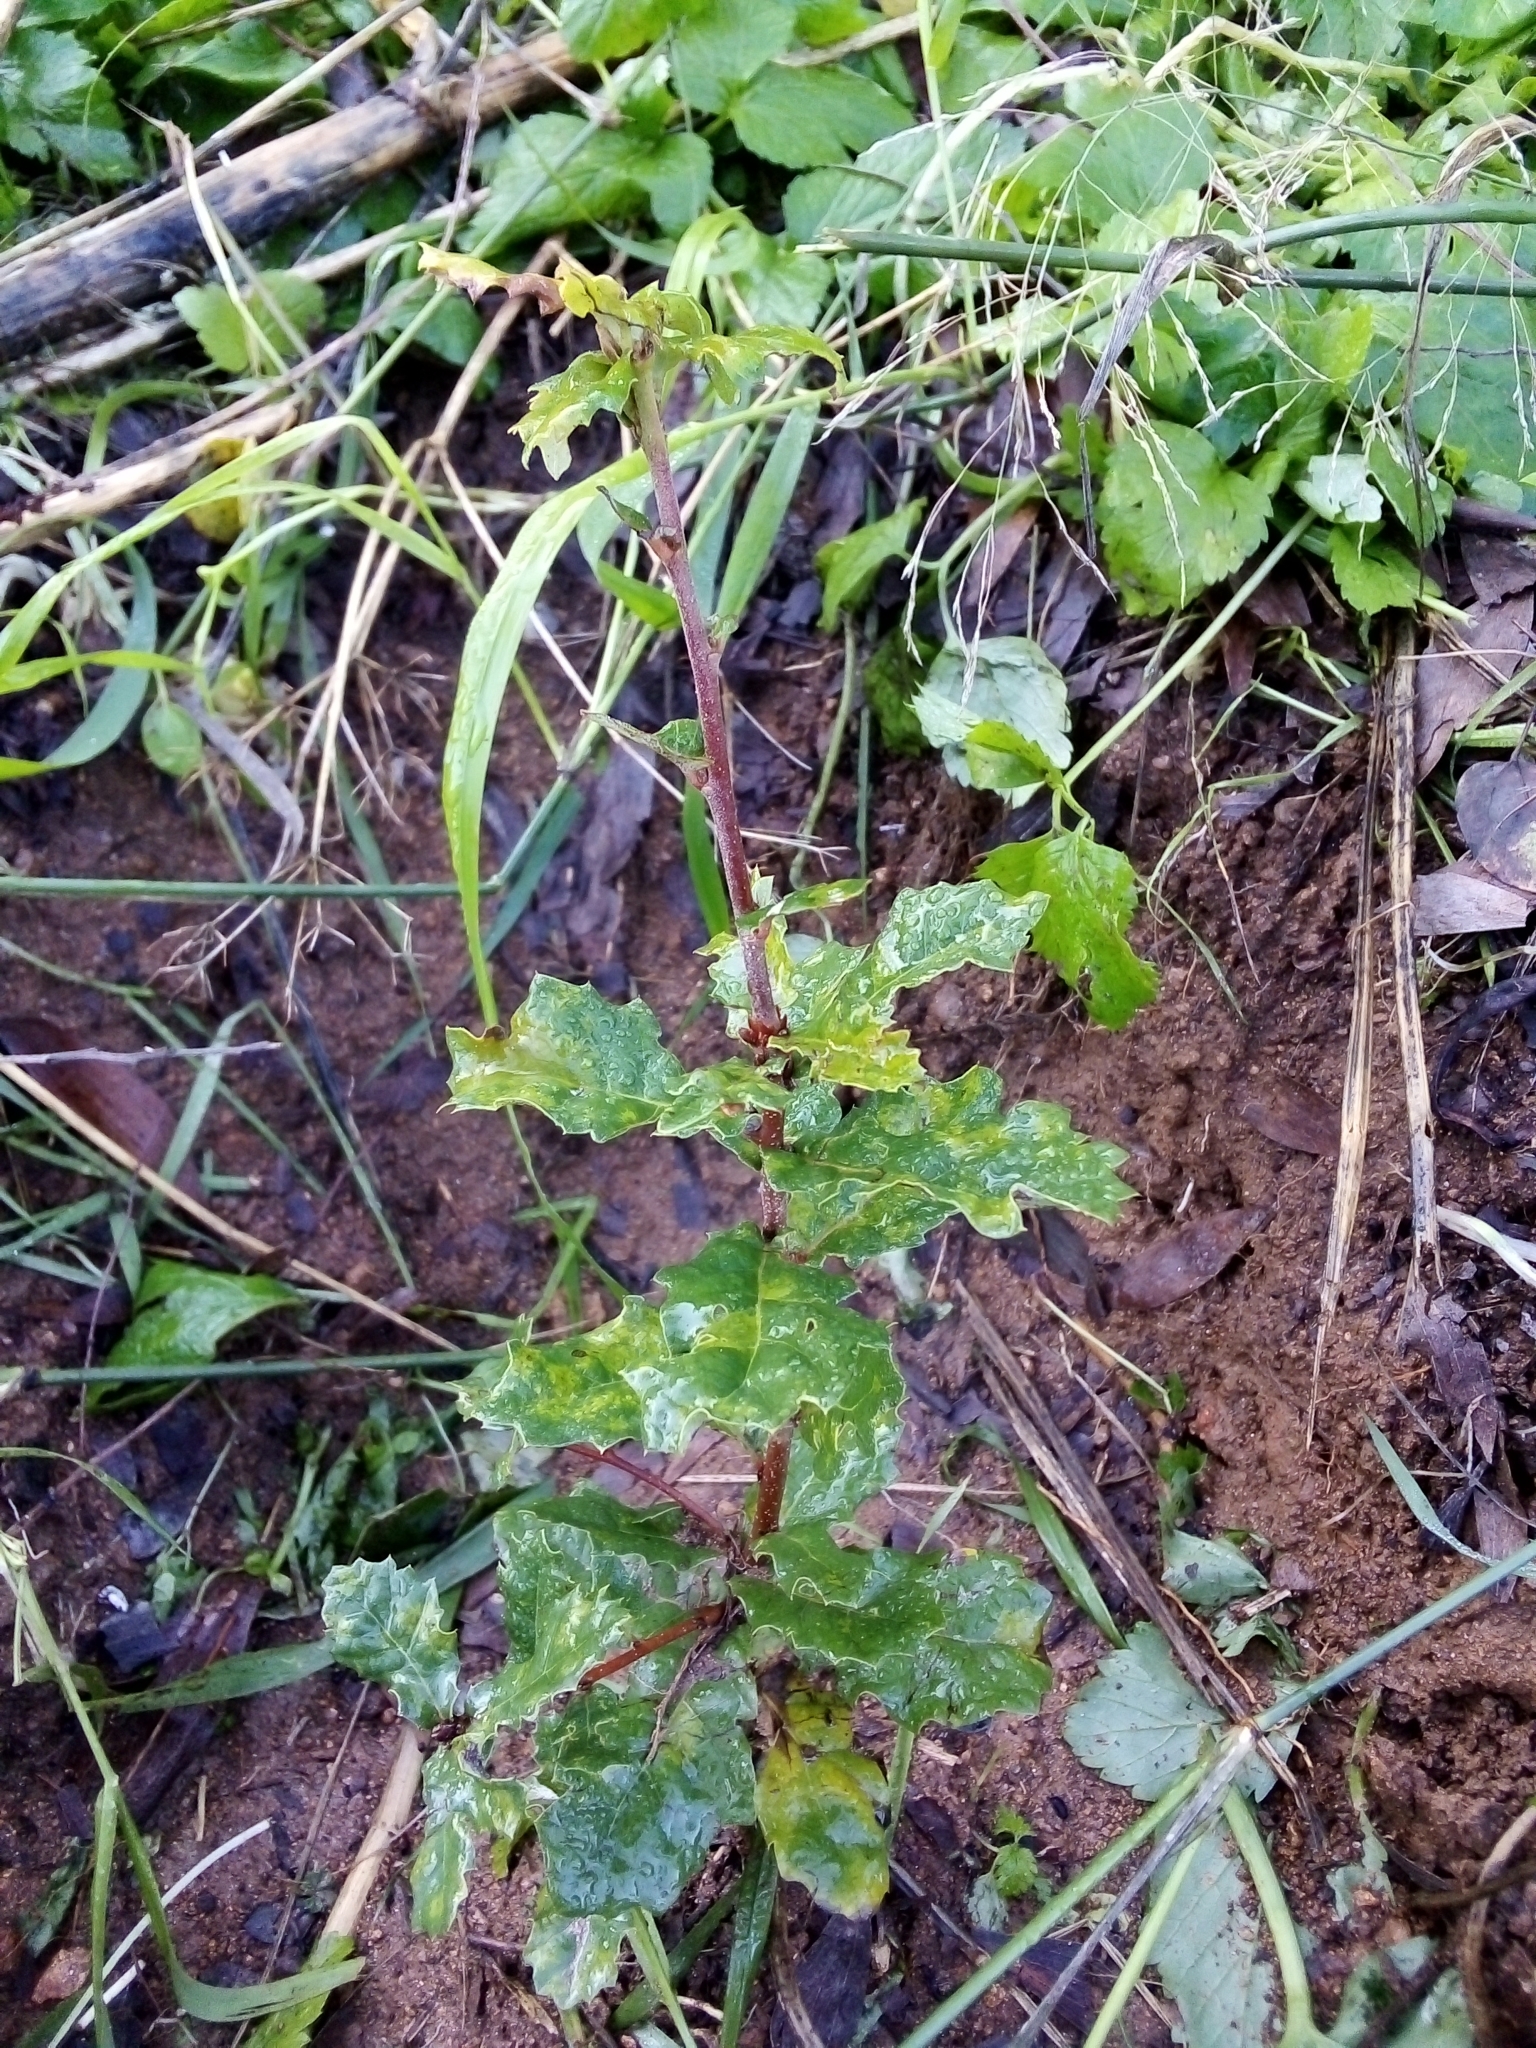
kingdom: Plantae
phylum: Tracheophyta
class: Magnoliopsida
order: Fagales
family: Fagaceae
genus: Quercus
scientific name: Quercus faginea
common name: Gall oak tree
